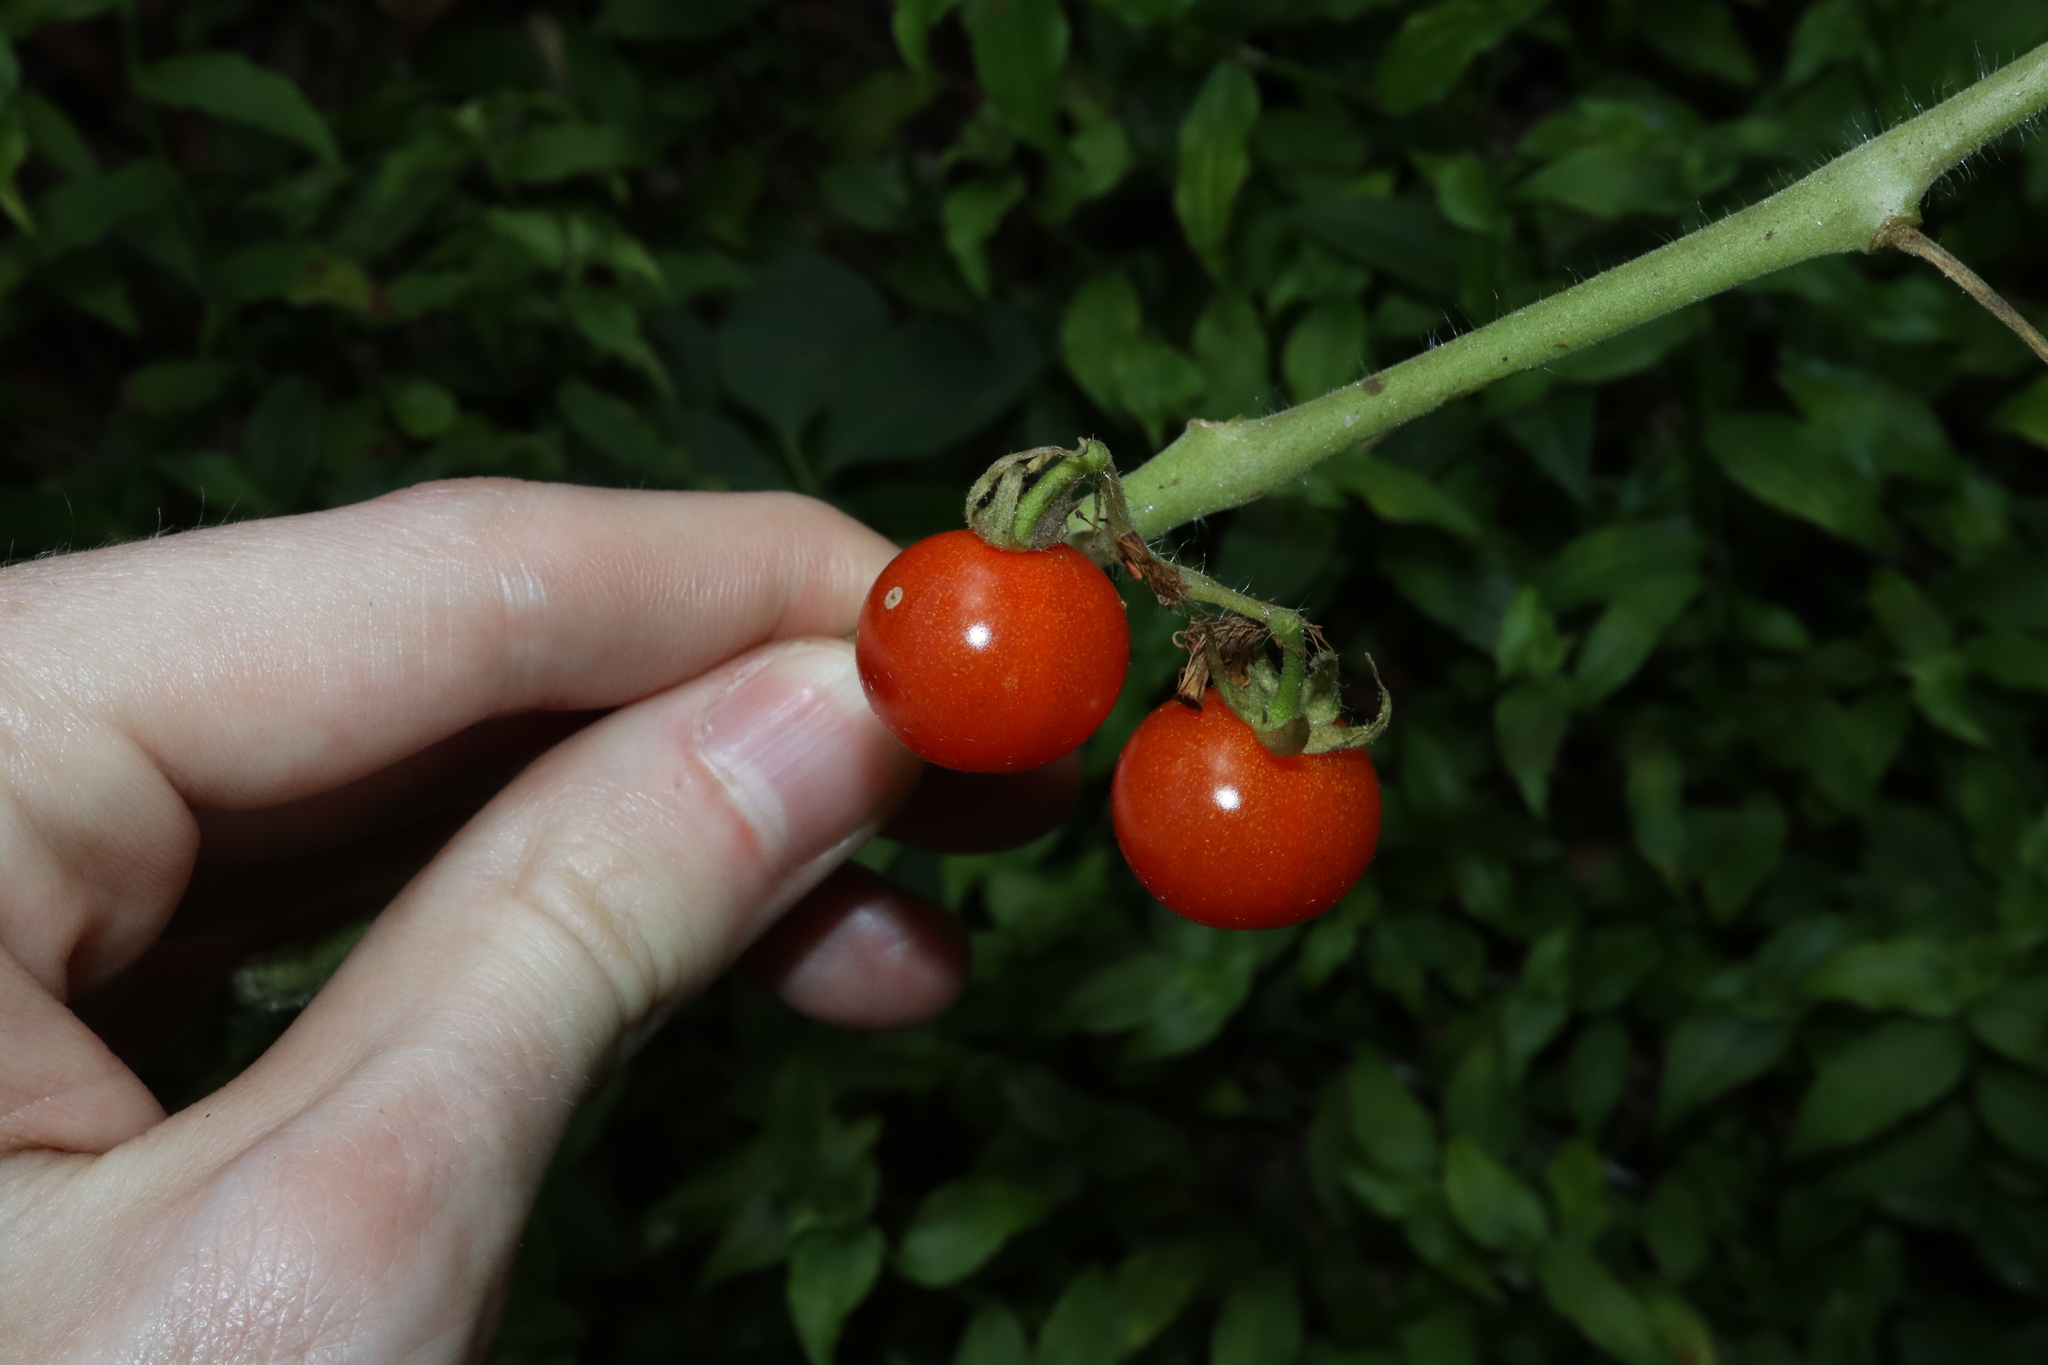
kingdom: Plantae
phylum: Tracheophyta
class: Magnoliopsida
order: Solanales
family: Solanaceae
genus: Solanum
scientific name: Solanum lycopersicum
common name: Garden tomato
